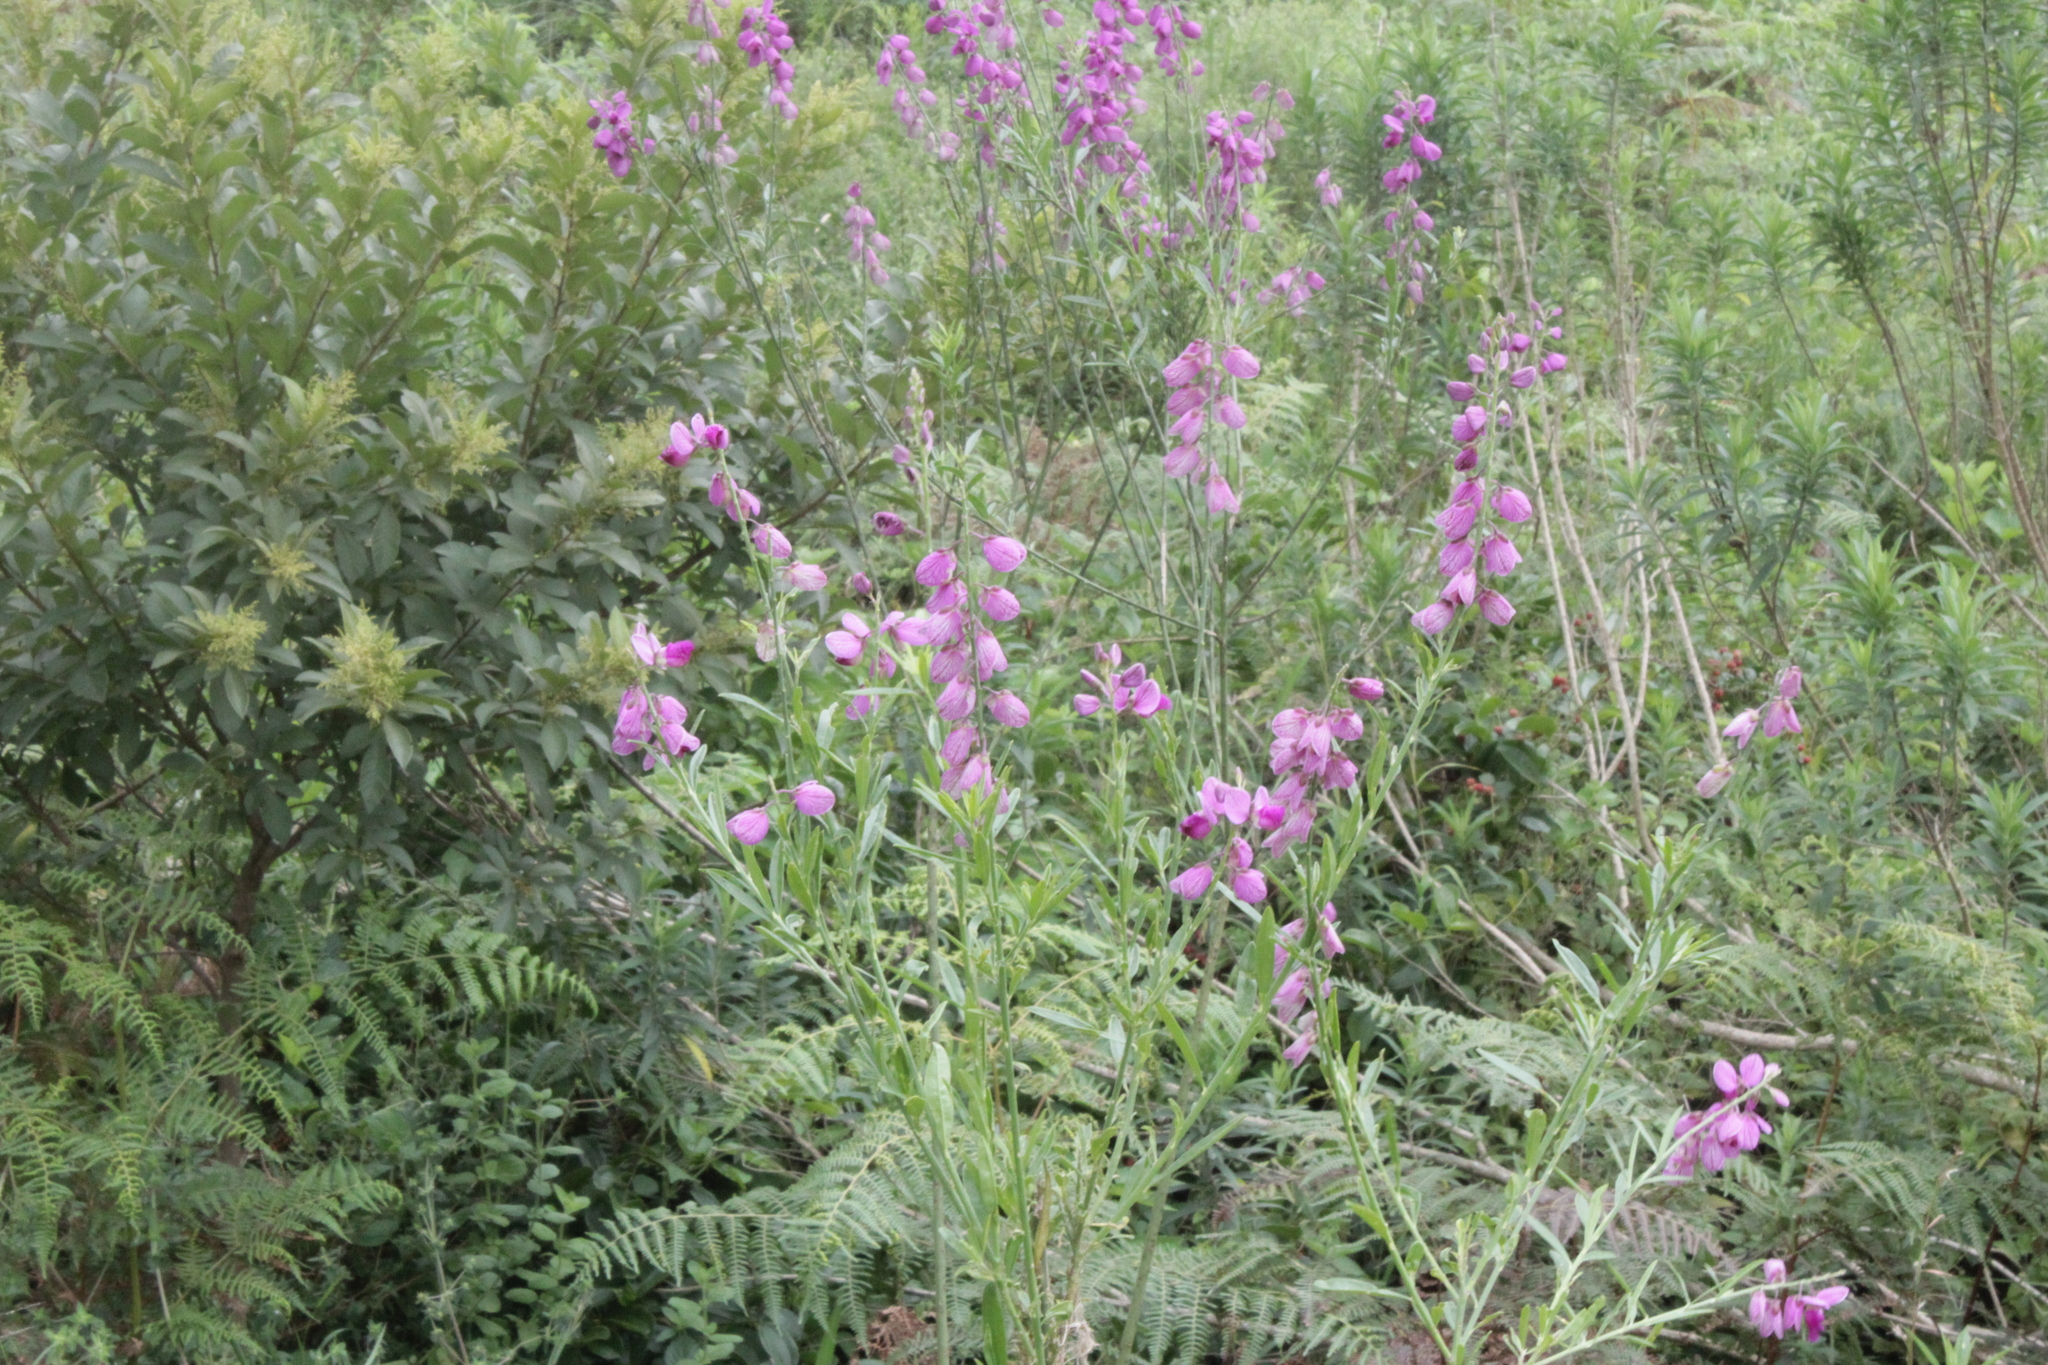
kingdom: Plantae
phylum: Tracheophyta
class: Magnoliopsida
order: Fabales
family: Polygalaceae
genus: Polygala
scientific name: Polygala virgata
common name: Milkwort
